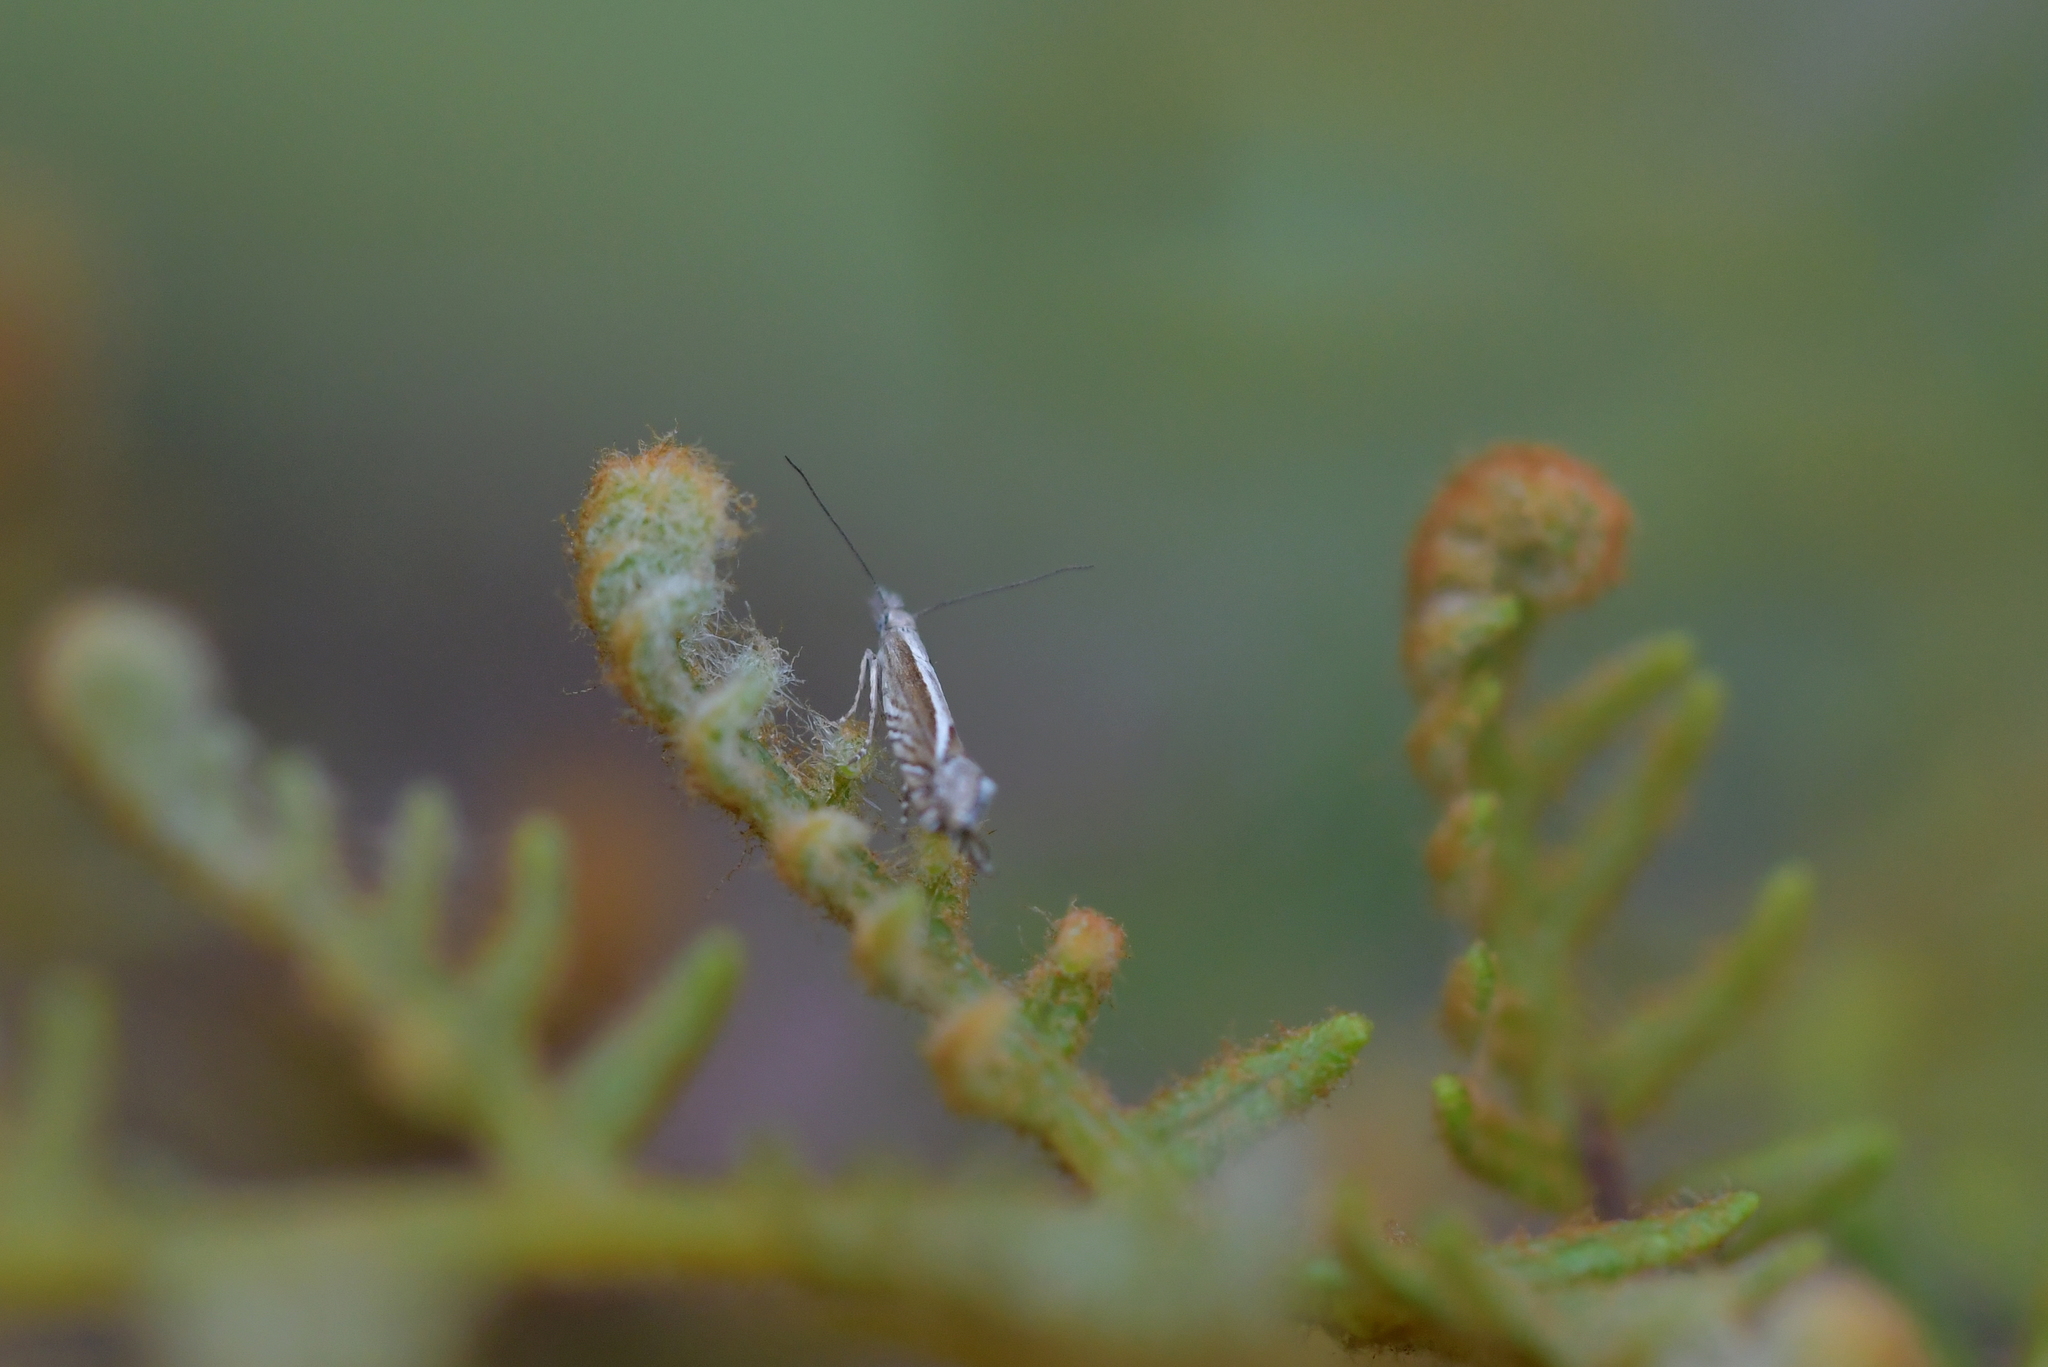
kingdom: Animalia
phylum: Arthropoda
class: Insecta
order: Lepidoptera
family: Glyphipterigidae
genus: Glyphipterix
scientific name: Glyphipterix oxymachaera
